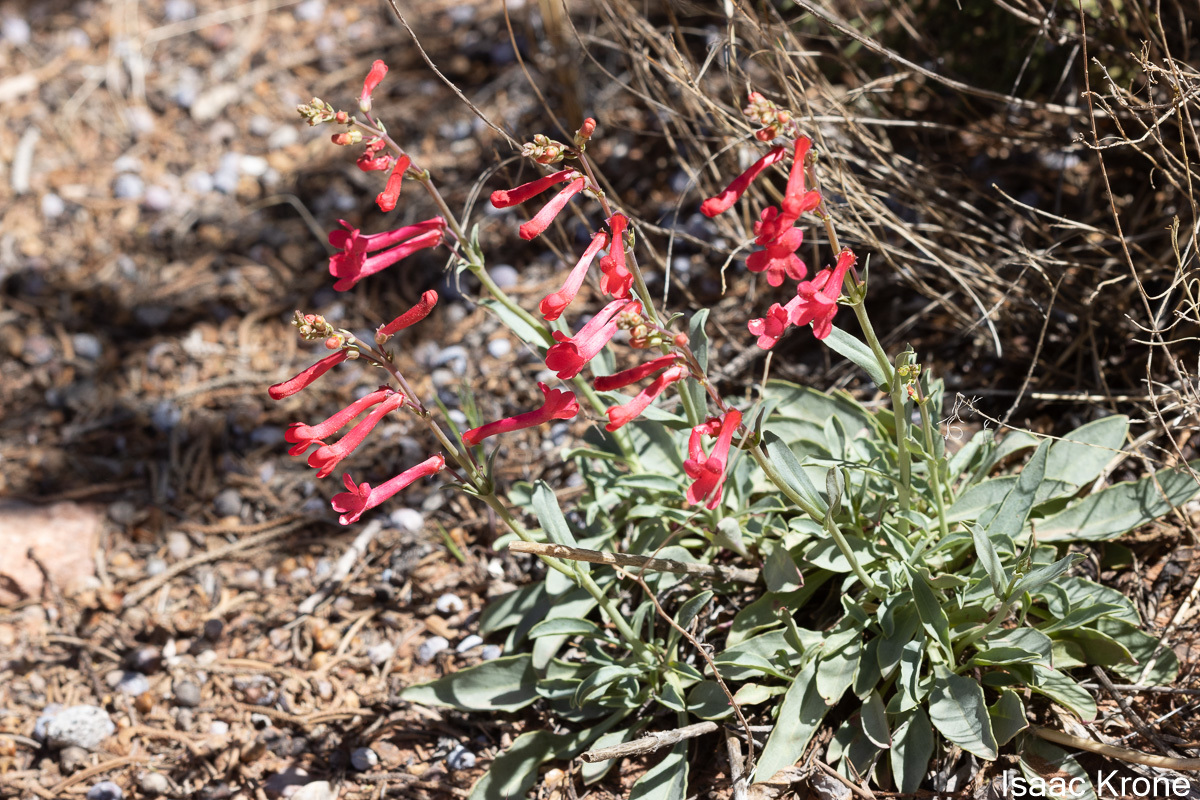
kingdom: Plantae
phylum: Tracheophyta
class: Magnoliopsida
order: Lamiales
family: Plantaginaceae
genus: Penstemon
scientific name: Penstemon utahensis
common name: Utah penstemon
